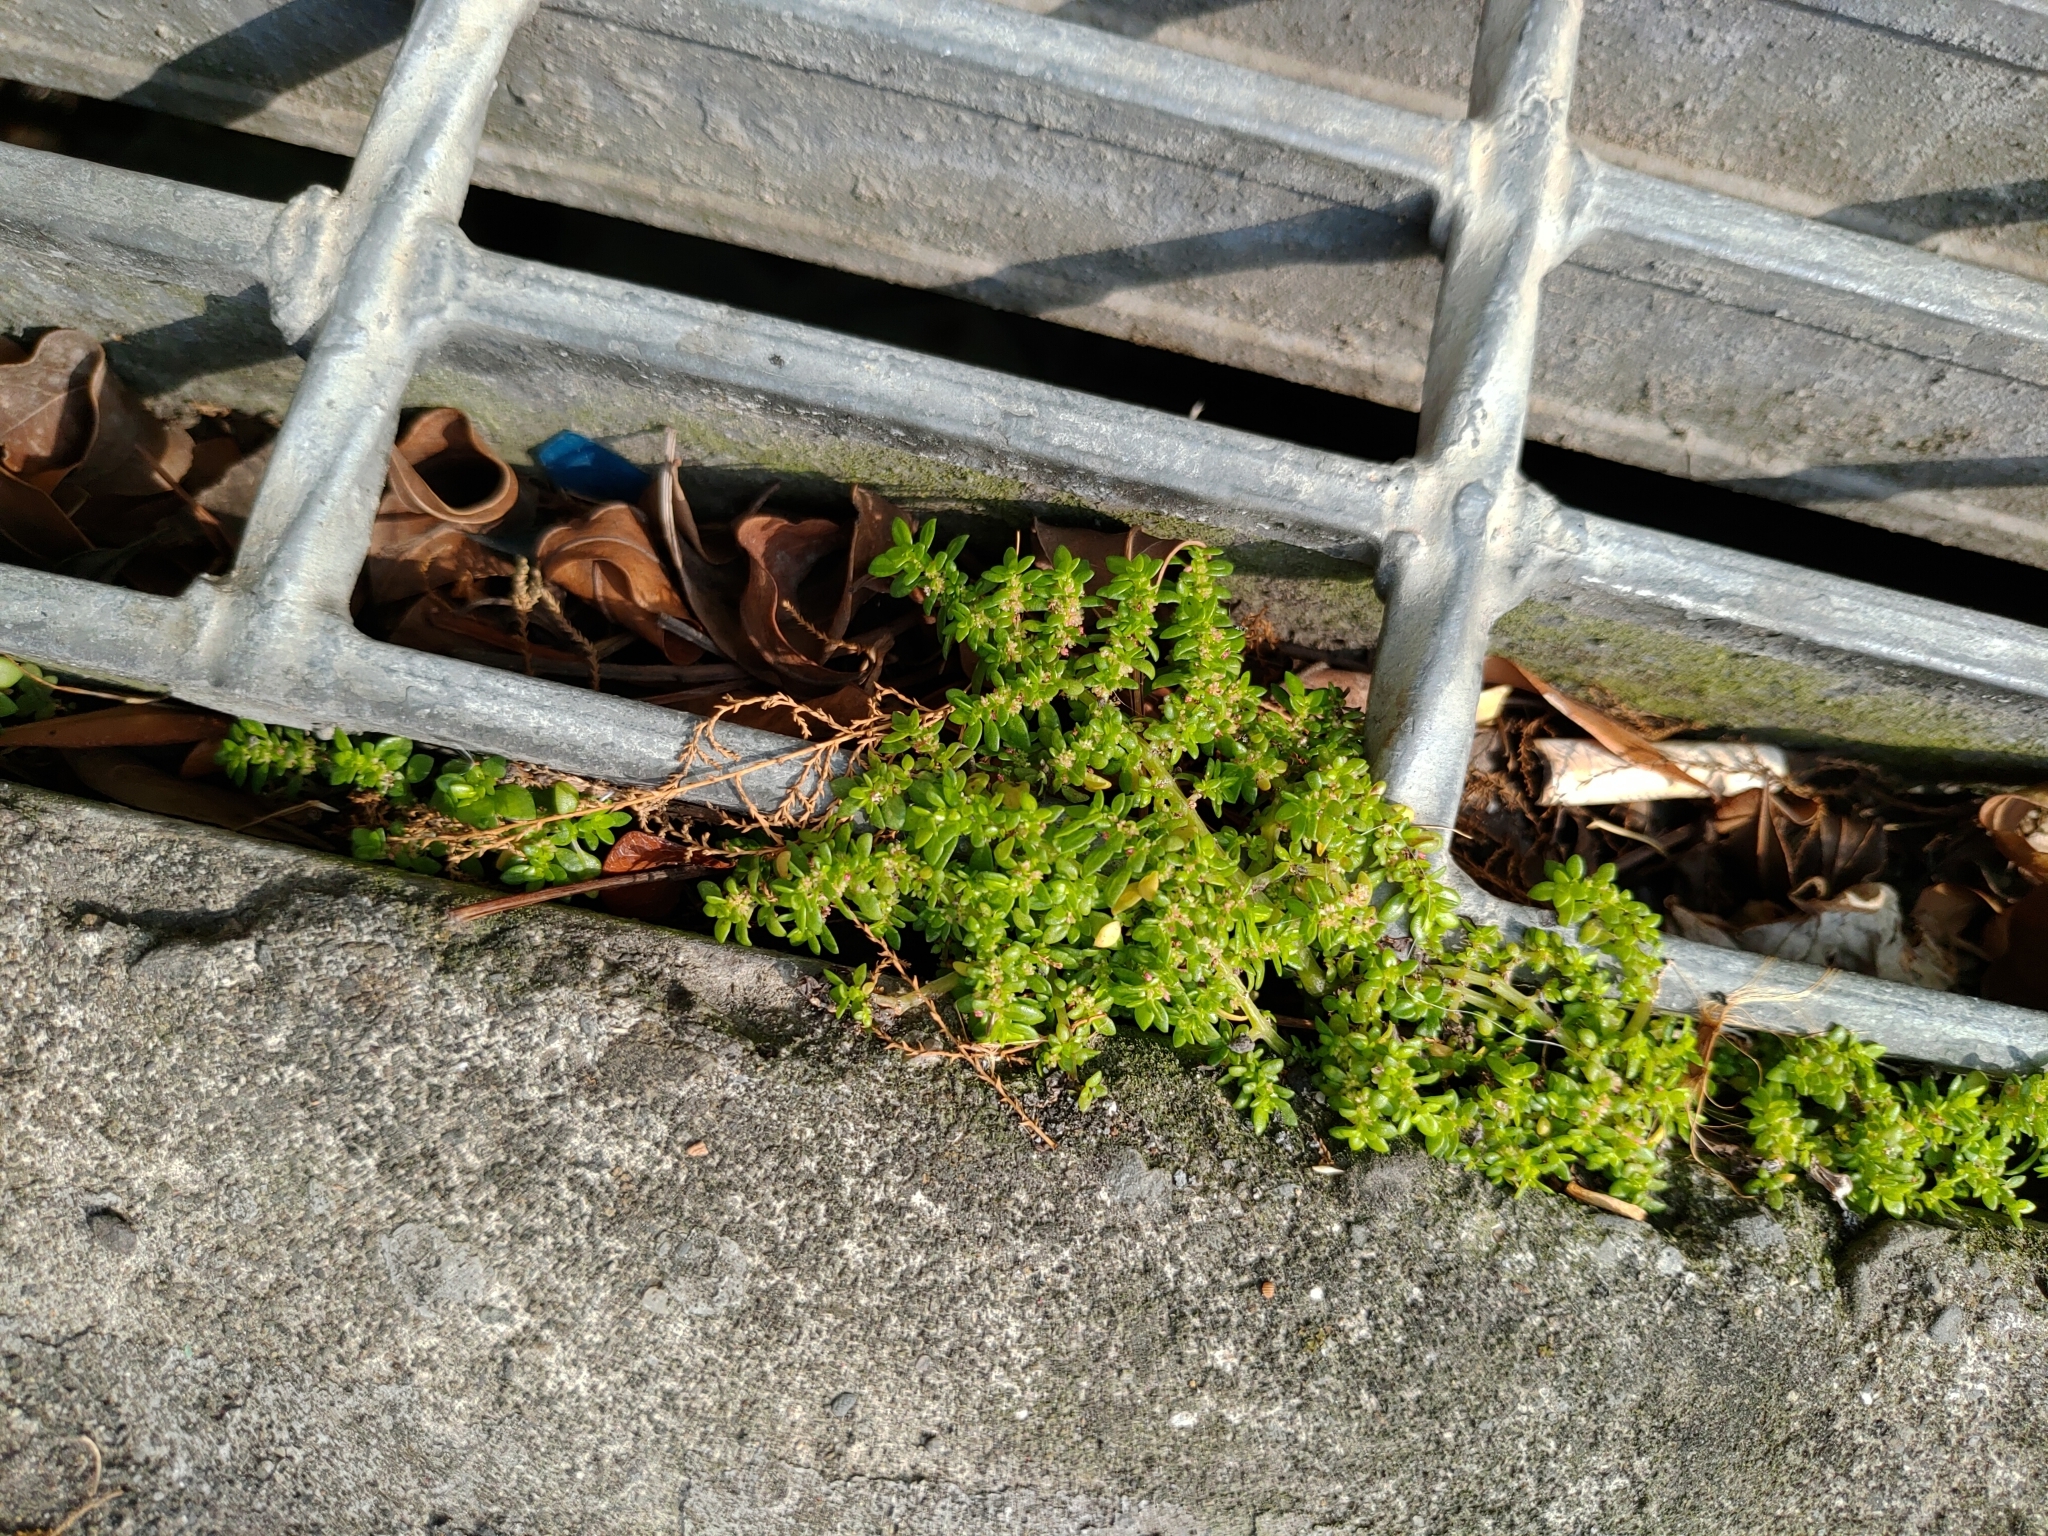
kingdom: Plantae
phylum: Tracheophyta
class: Magnoliopsida
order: Rosales
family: Urticaceae
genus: Pilea
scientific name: Pilea microphylla
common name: Artillery-plant
